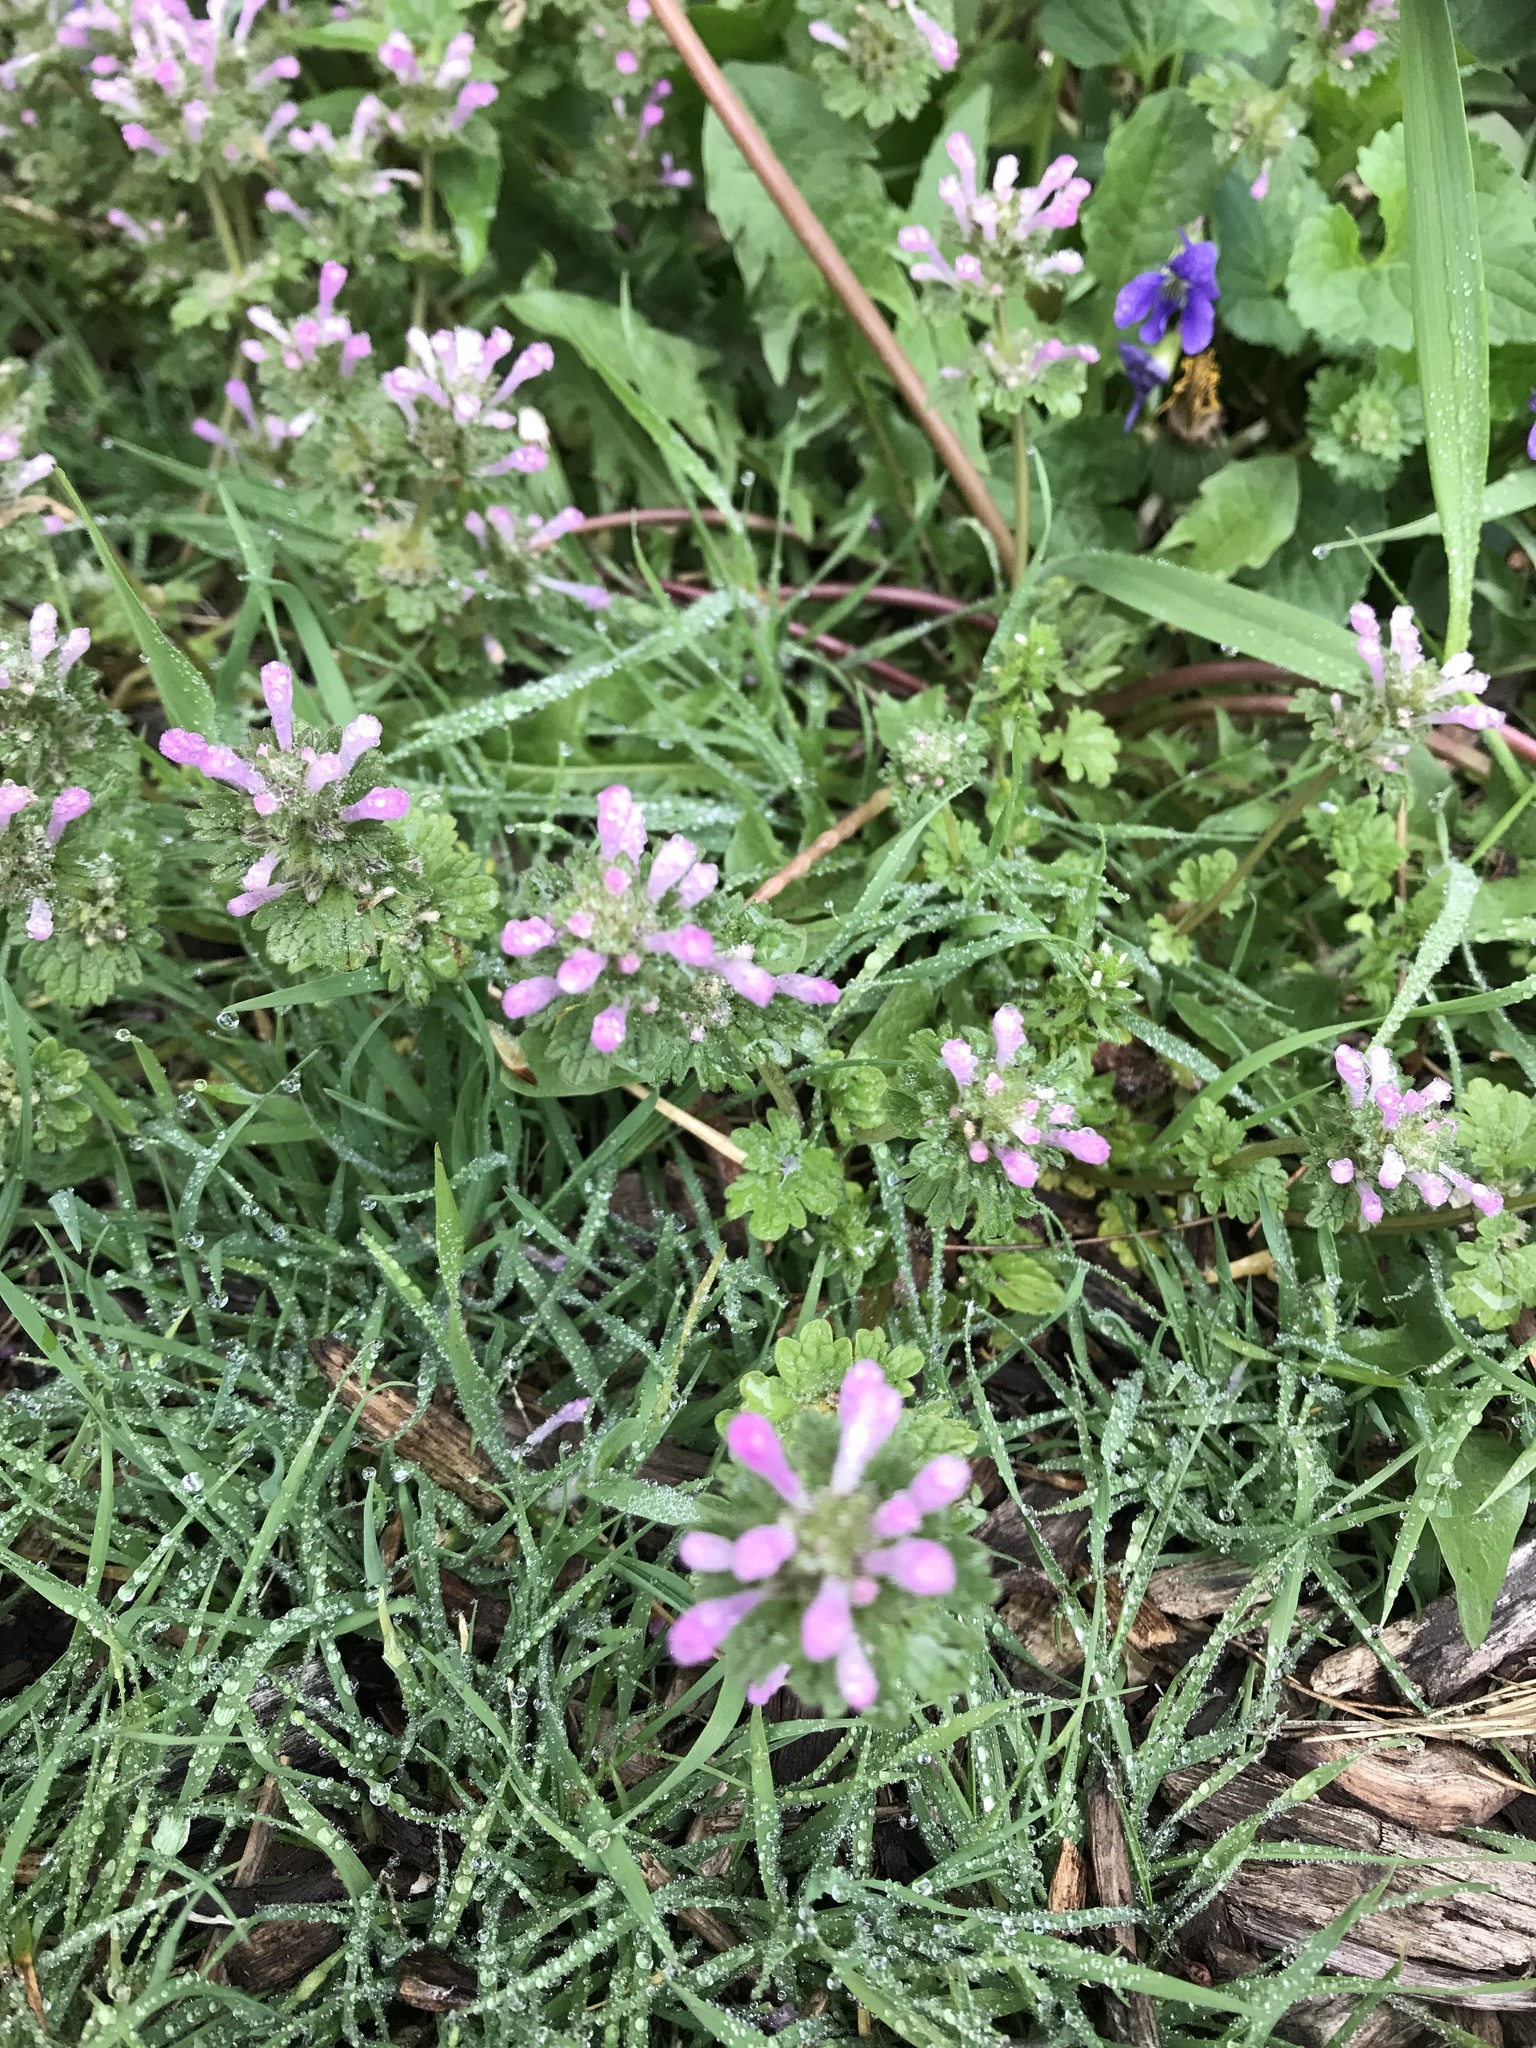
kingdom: Plantae
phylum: Tracheophyta
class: Magnoliopsida
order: Lamiales
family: Lamiaceae
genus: Lamium
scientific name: Lamium amplexicaule
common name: Henbit dead-nettle
